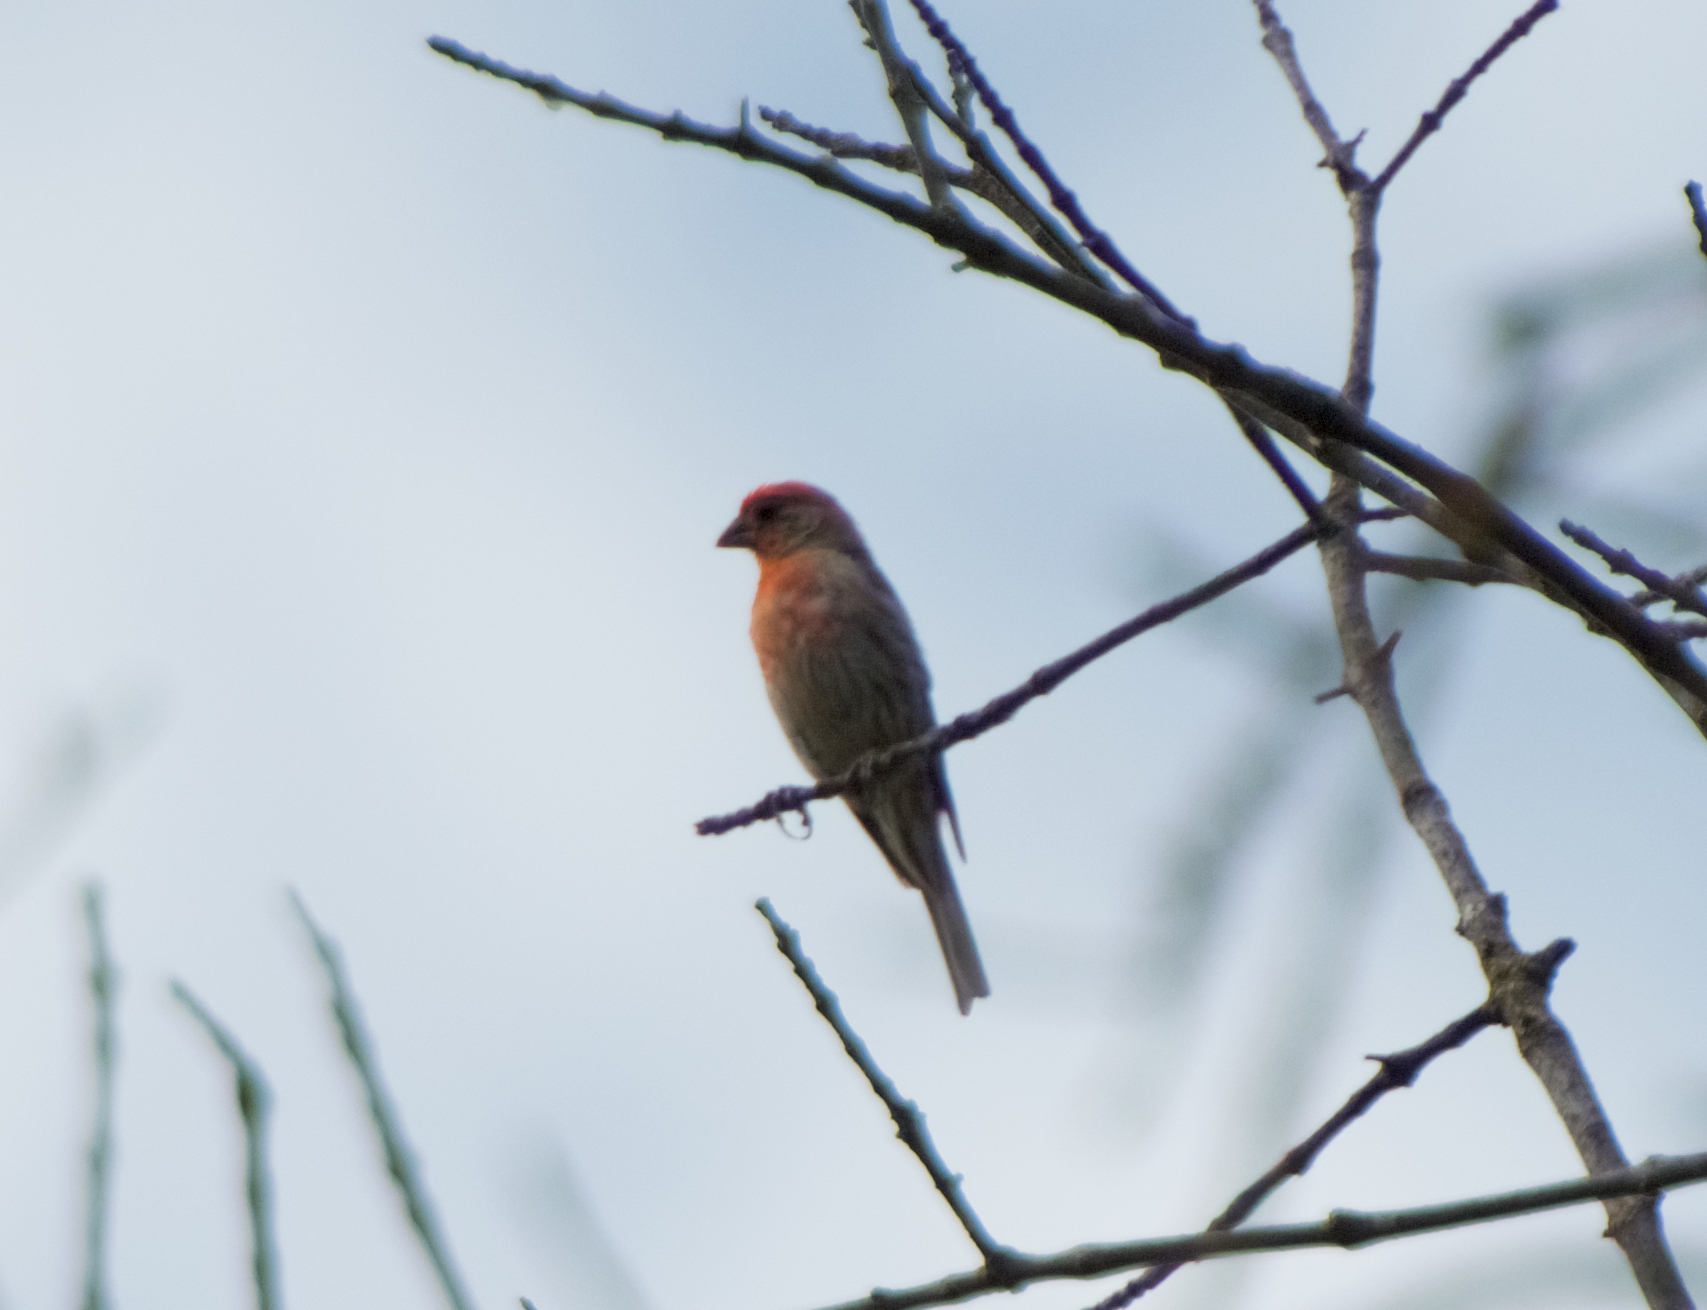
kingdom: Animalia
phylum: Chordata
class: Aves
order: Passeriformes
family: Fringillidae
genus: Haemorhous
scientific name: Haemorhous mexicanus
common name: House finch
